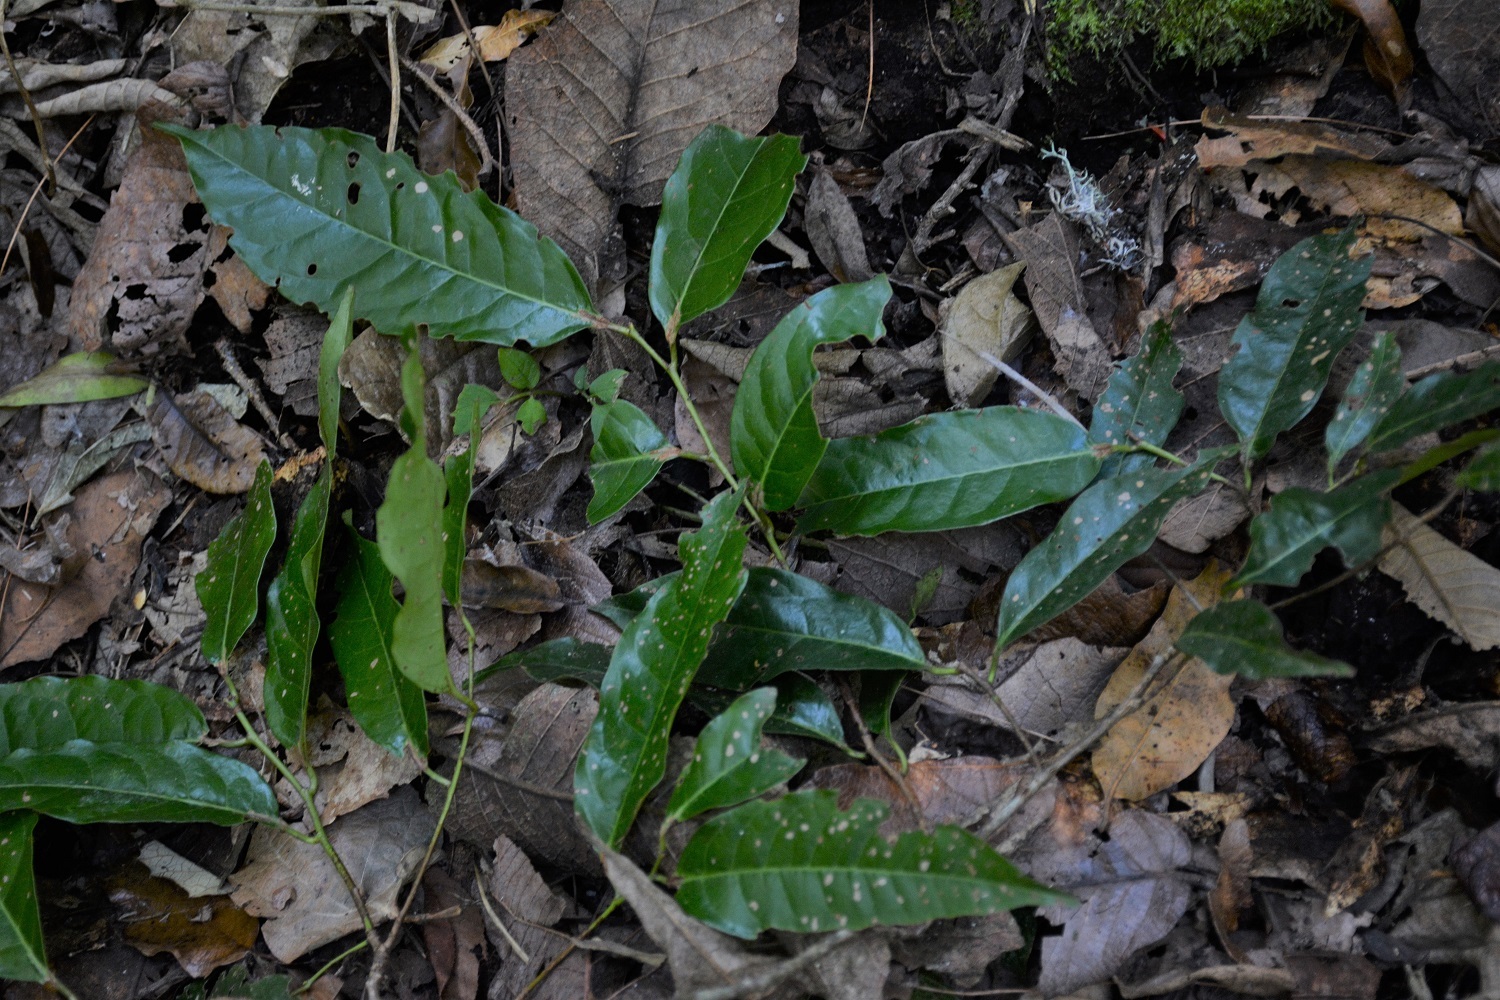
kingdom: Plantae
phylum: Tracheophyta
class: Magnoliopsida
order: Rosales
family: Rosaceae
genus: Prunus
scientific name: Prunus lundelliana
